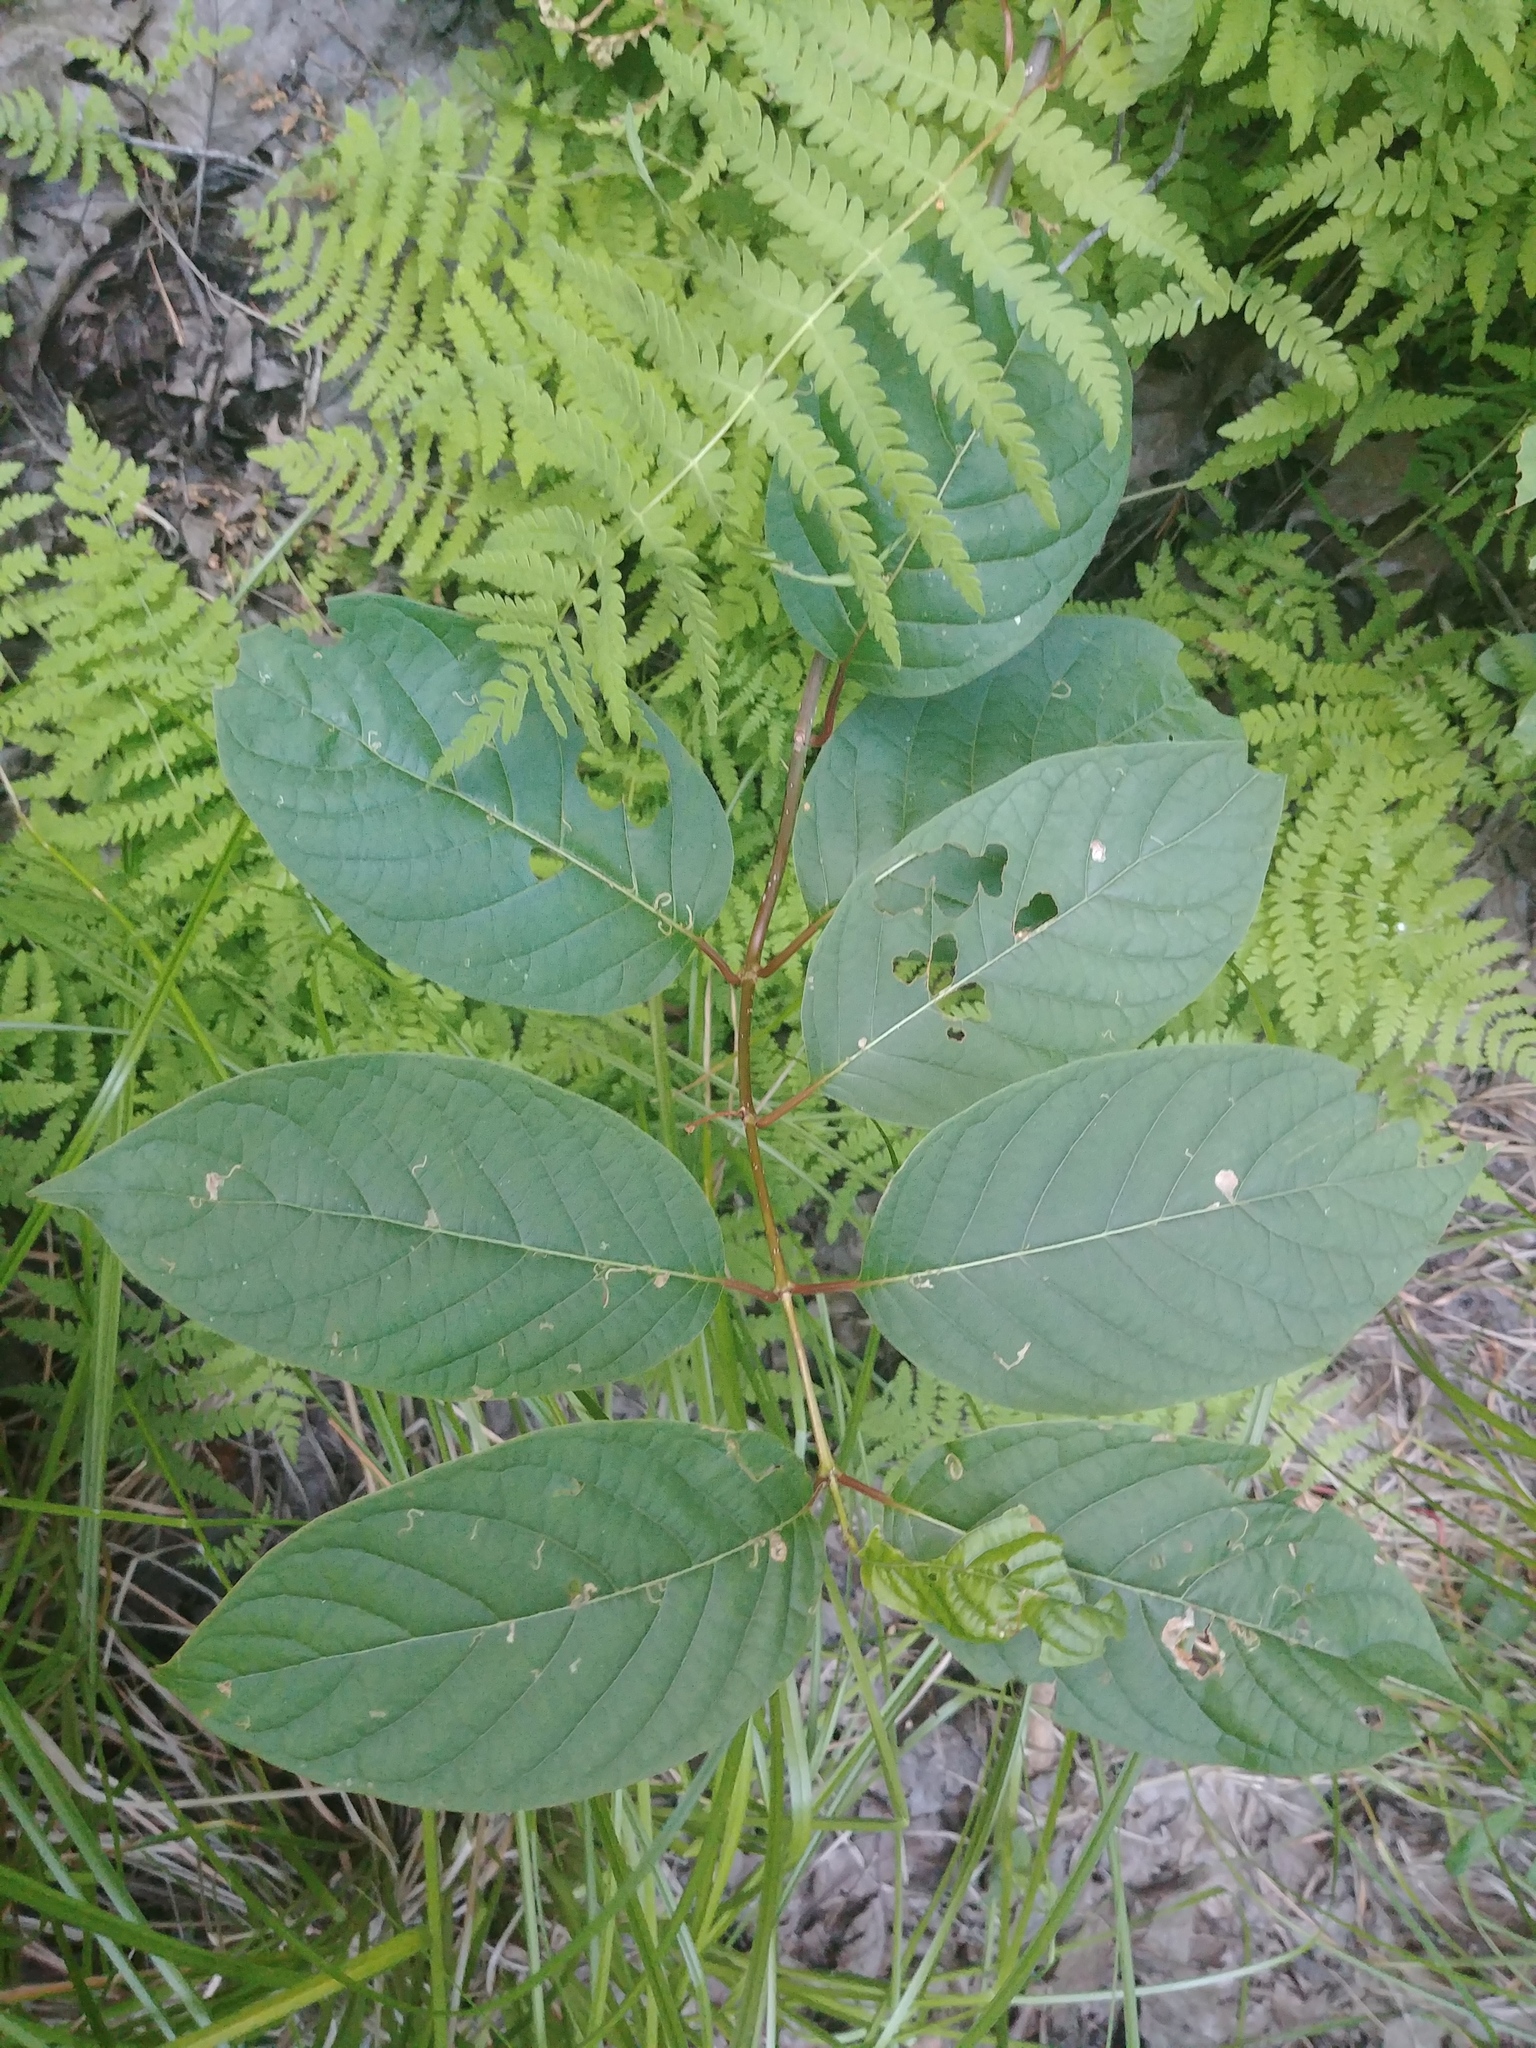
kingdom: Plantae
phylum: Tracheophyta
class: Magnoliopsida
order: Gentianales
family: Rubiaceae
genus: Cephalanthus
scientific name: Cephalanthus occidentalis
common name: Button-willow
